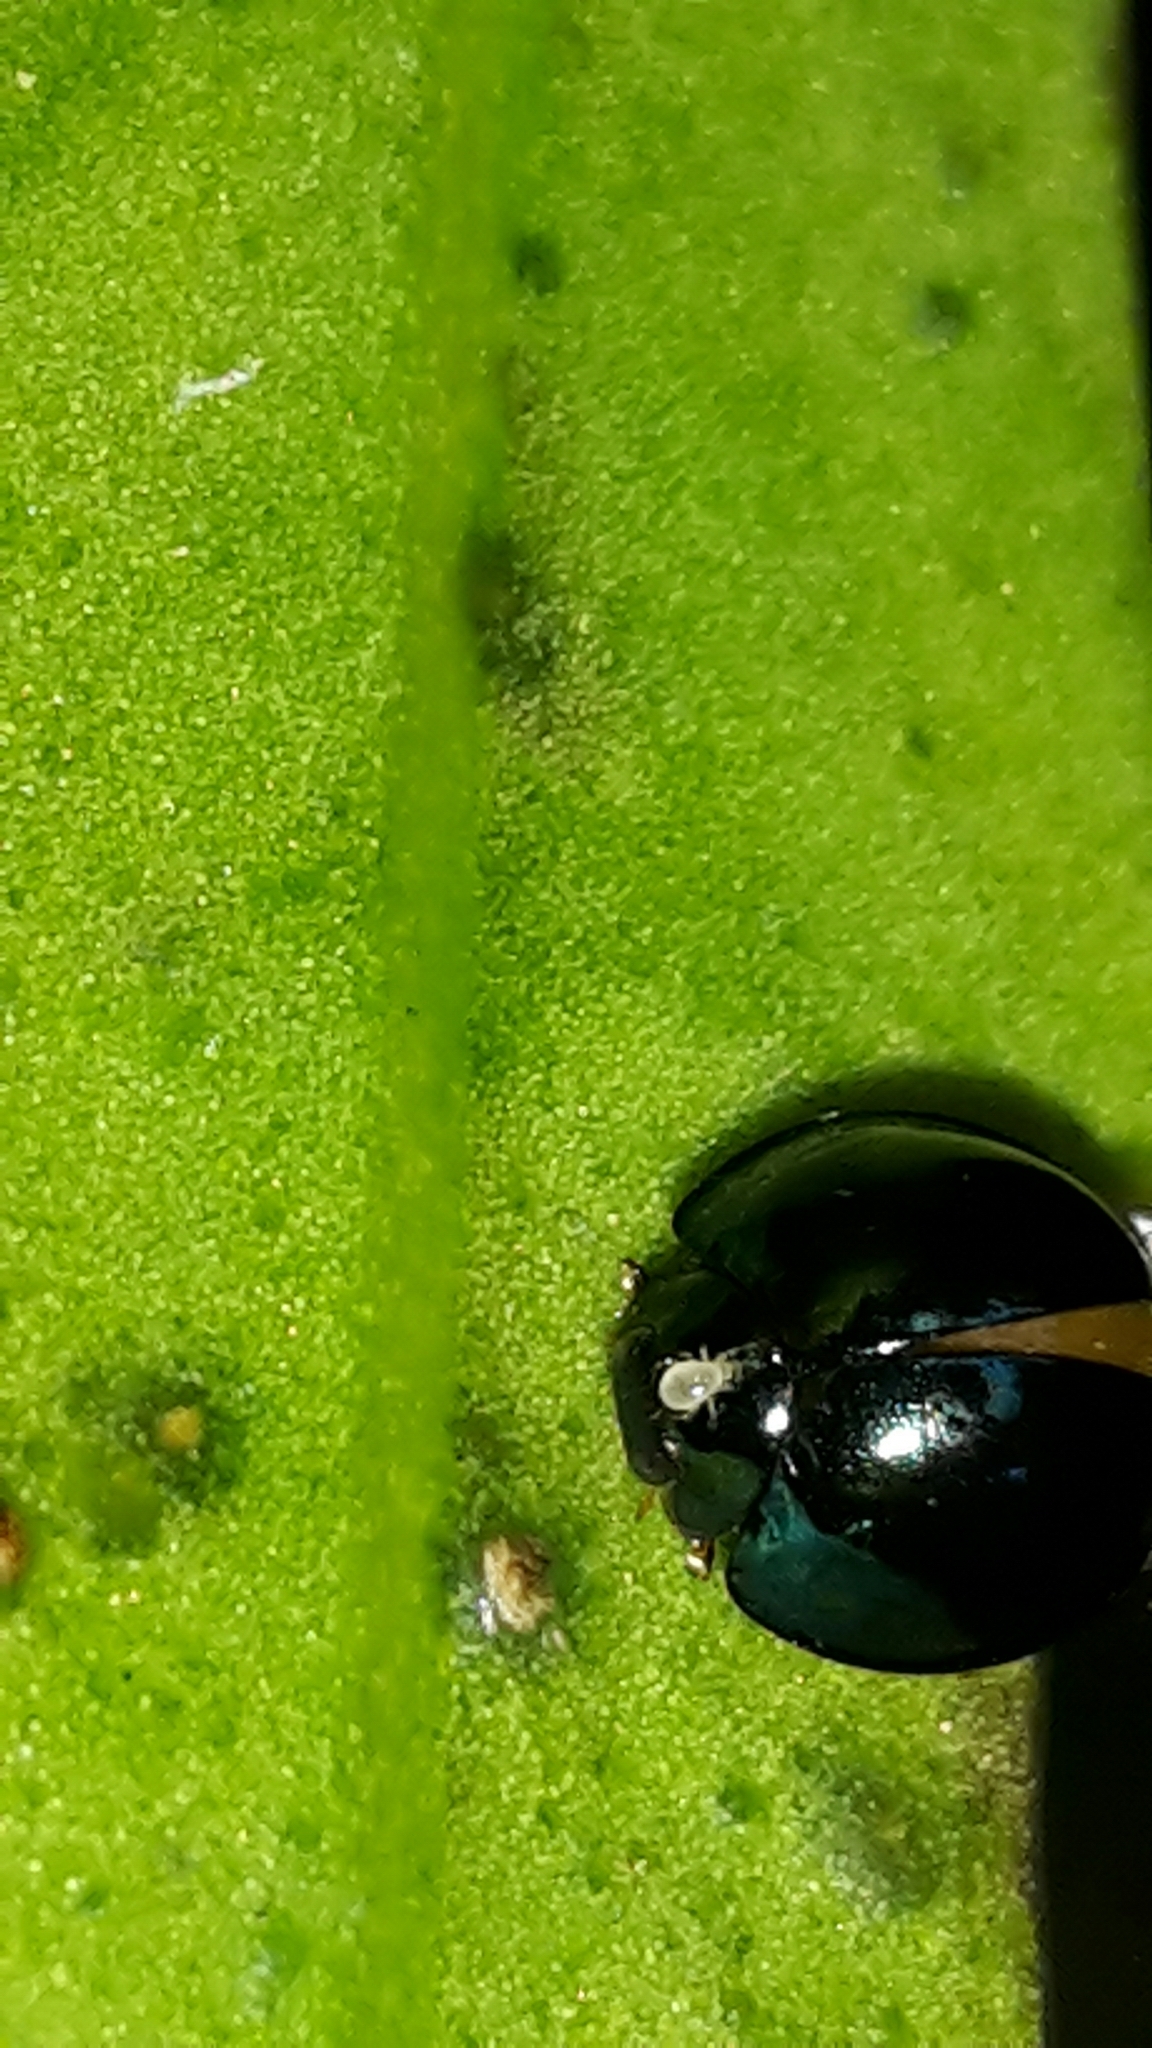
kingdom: Animalia
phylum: Arthropoda
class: Insecta
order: Coleoptera
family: Coccinellidae
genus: Halmus
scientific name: Halmus chalybeus
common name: Steel blue ladybird beetle
